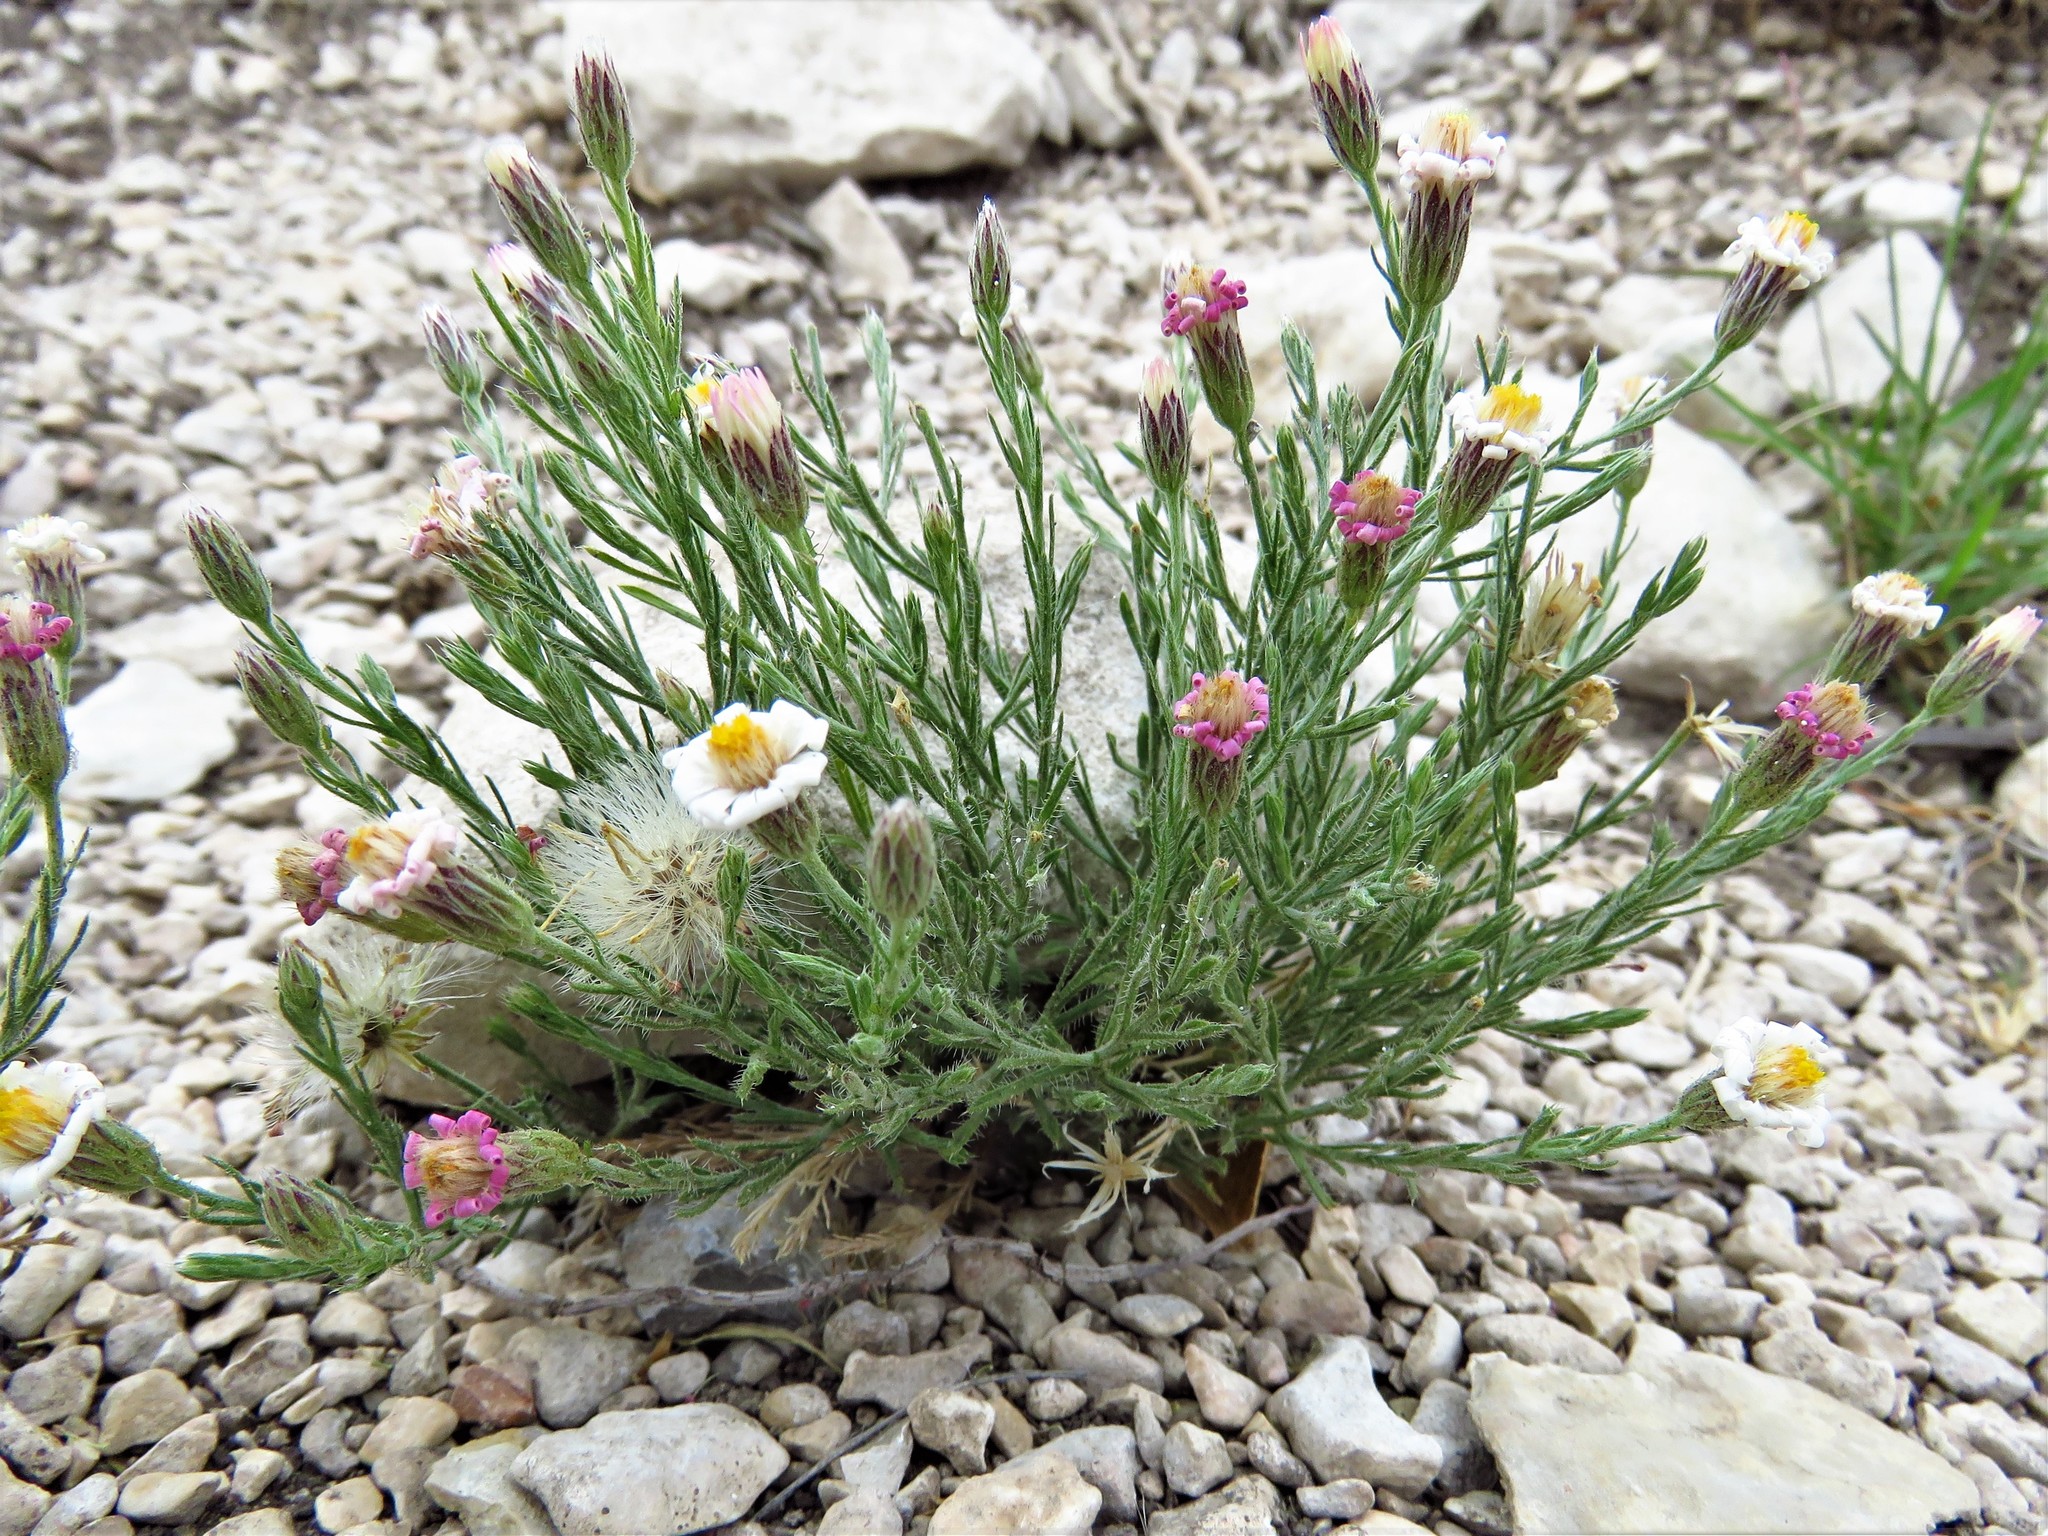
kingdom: Plantae
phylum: Tracheophyta
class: Magnoliopsida
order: Asterales
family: Asteraceae
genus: Chaetopappa
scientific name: Chaetopappa ericoides
